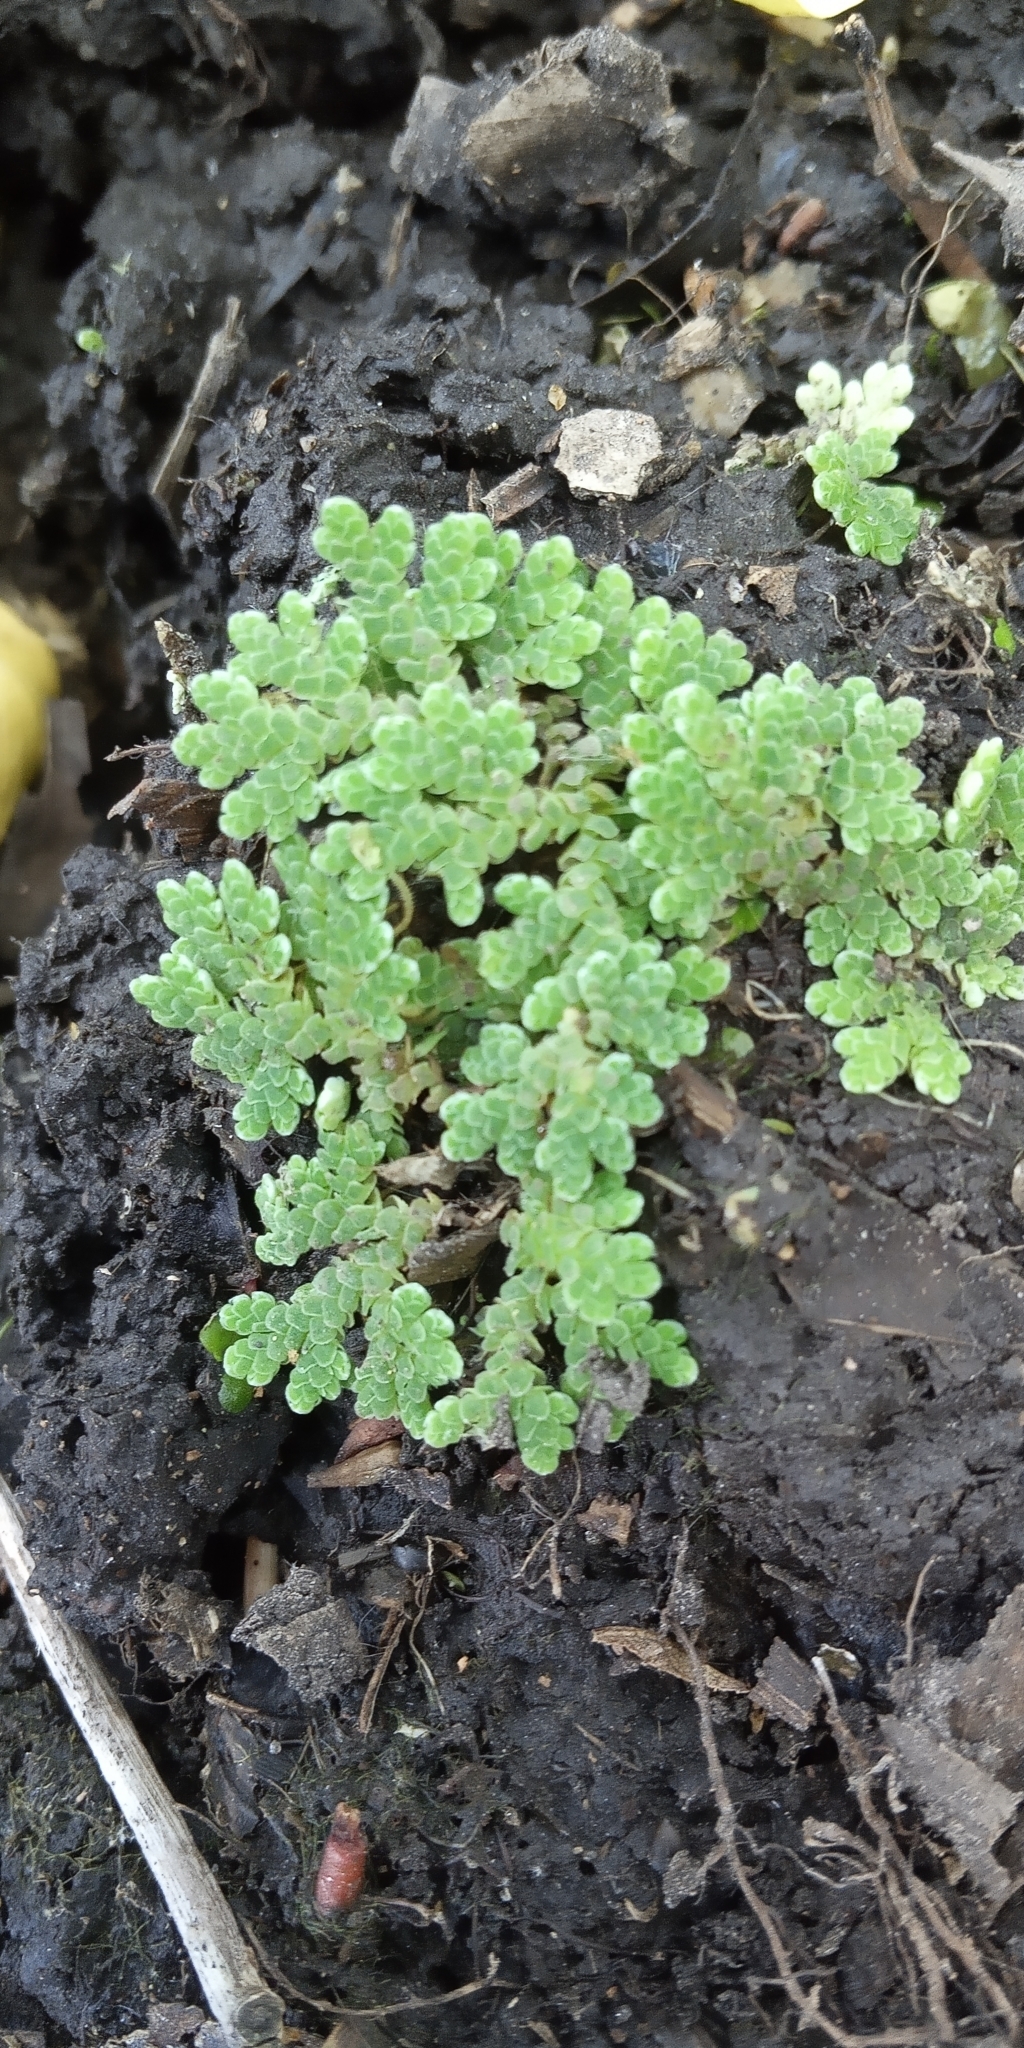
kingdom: Plantae
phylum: Tracheophyta
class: Polypodiopsida
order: Salviniales
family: Salviniaceae
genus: Azolla
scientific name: Azolla filiculoides
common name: Water fern
